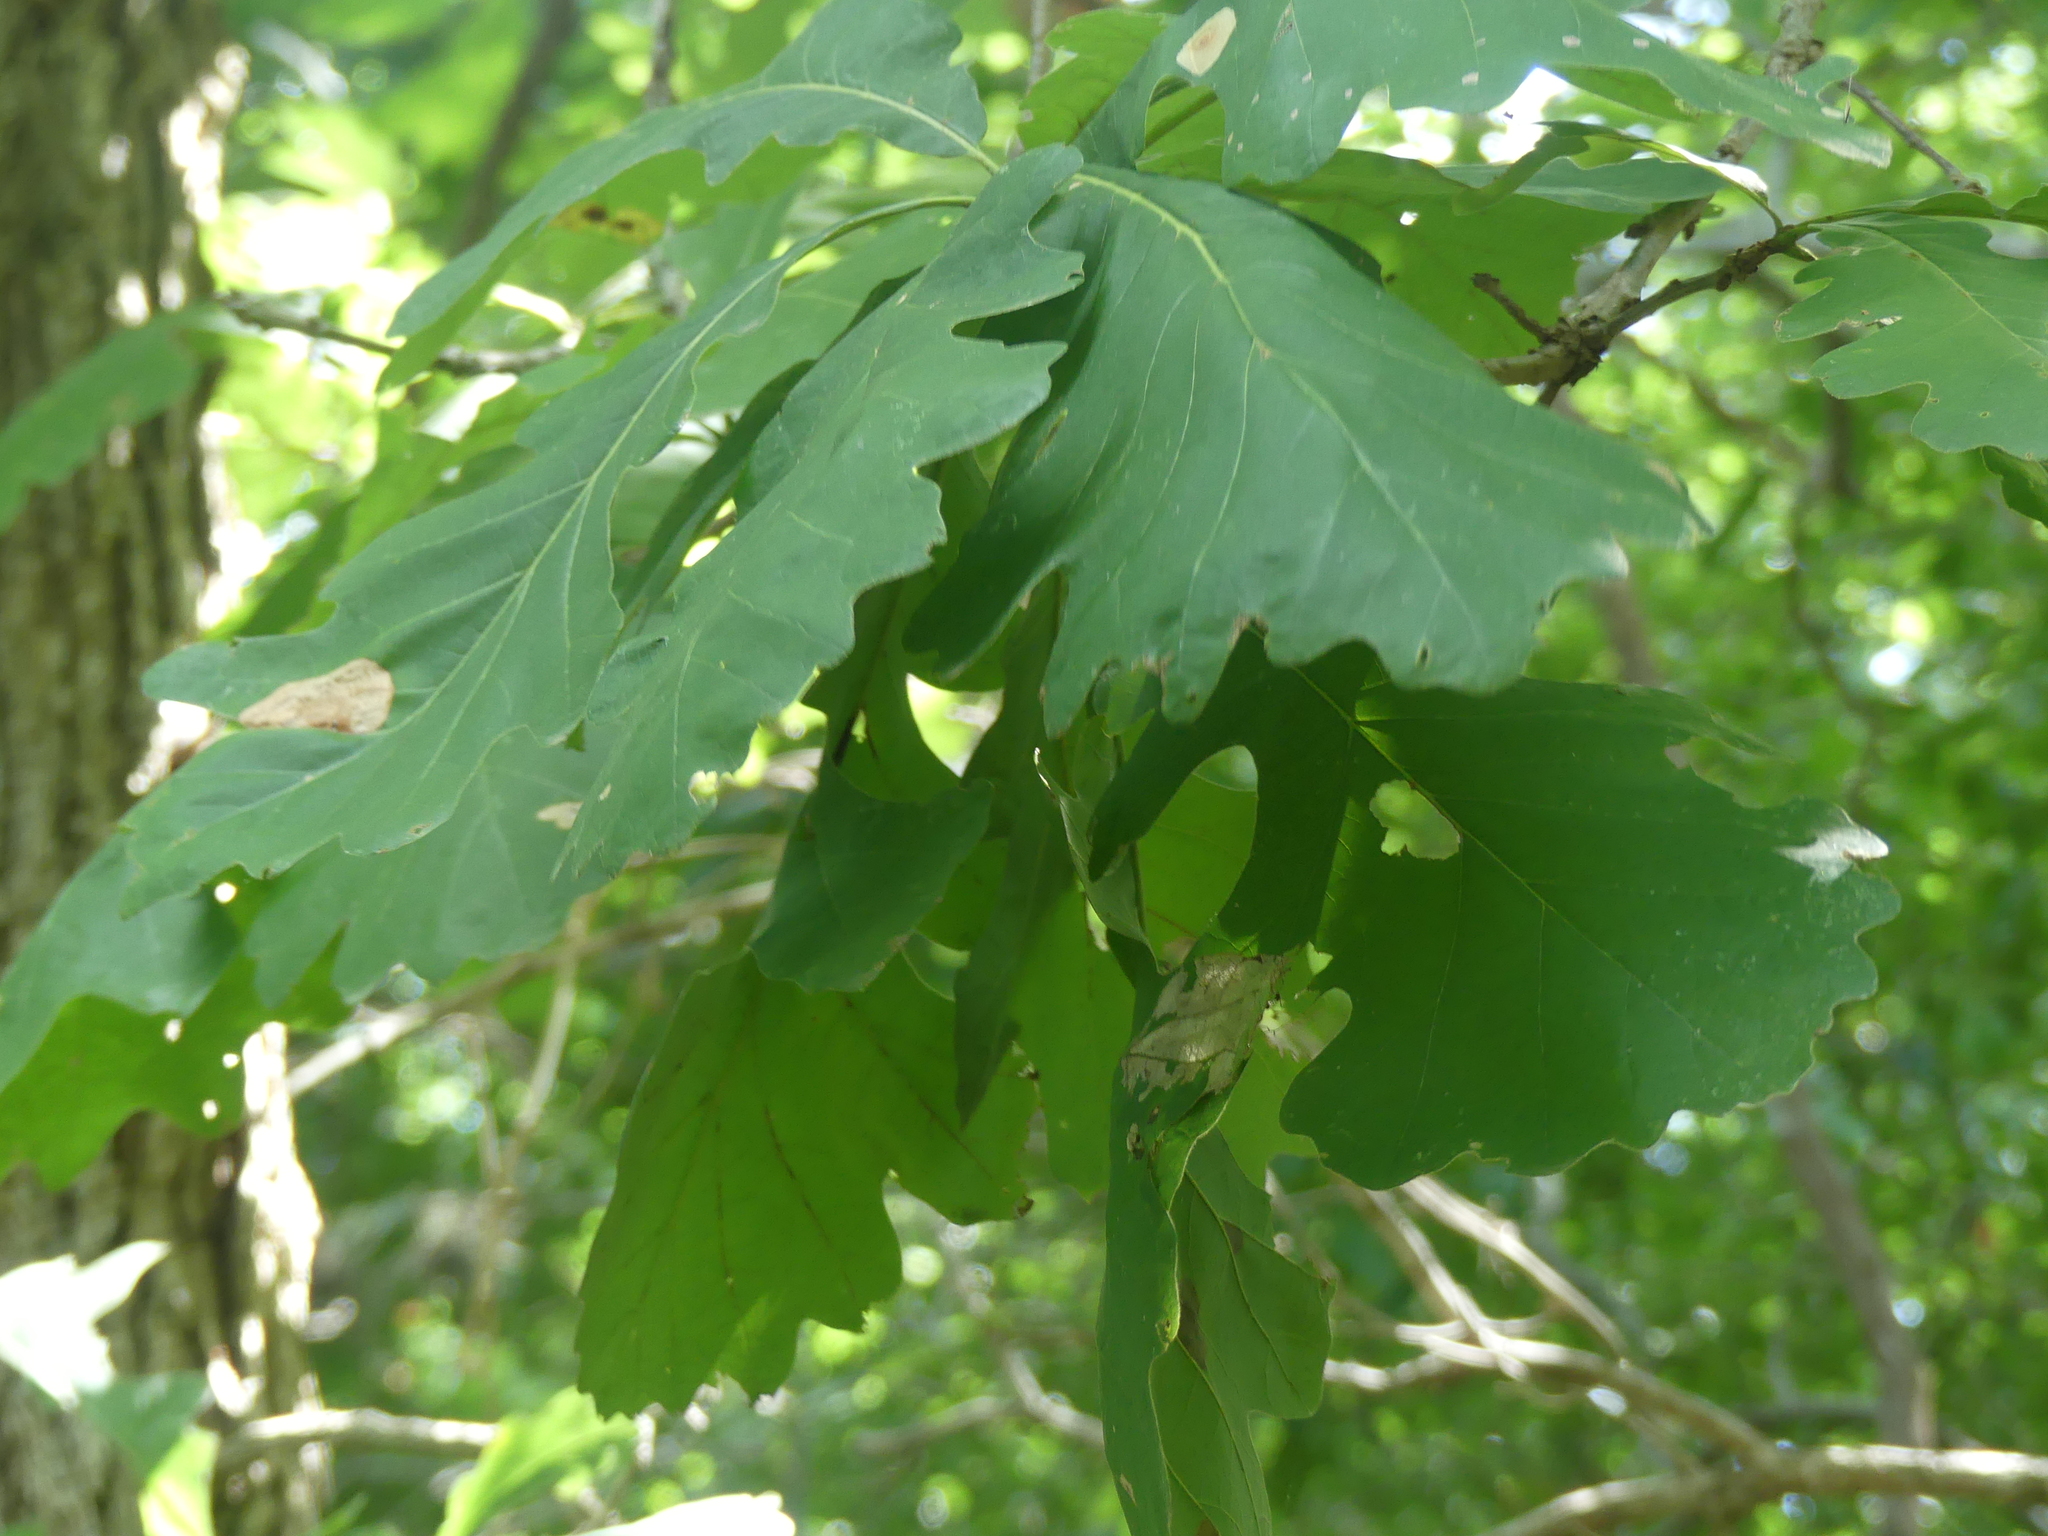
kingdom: Plantae
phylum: Tracheophyta
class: Magnoliopsida
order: Fagales
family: Fagaceae
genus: Quercus
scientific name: Quercus macrocarpa
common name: Bur oak
